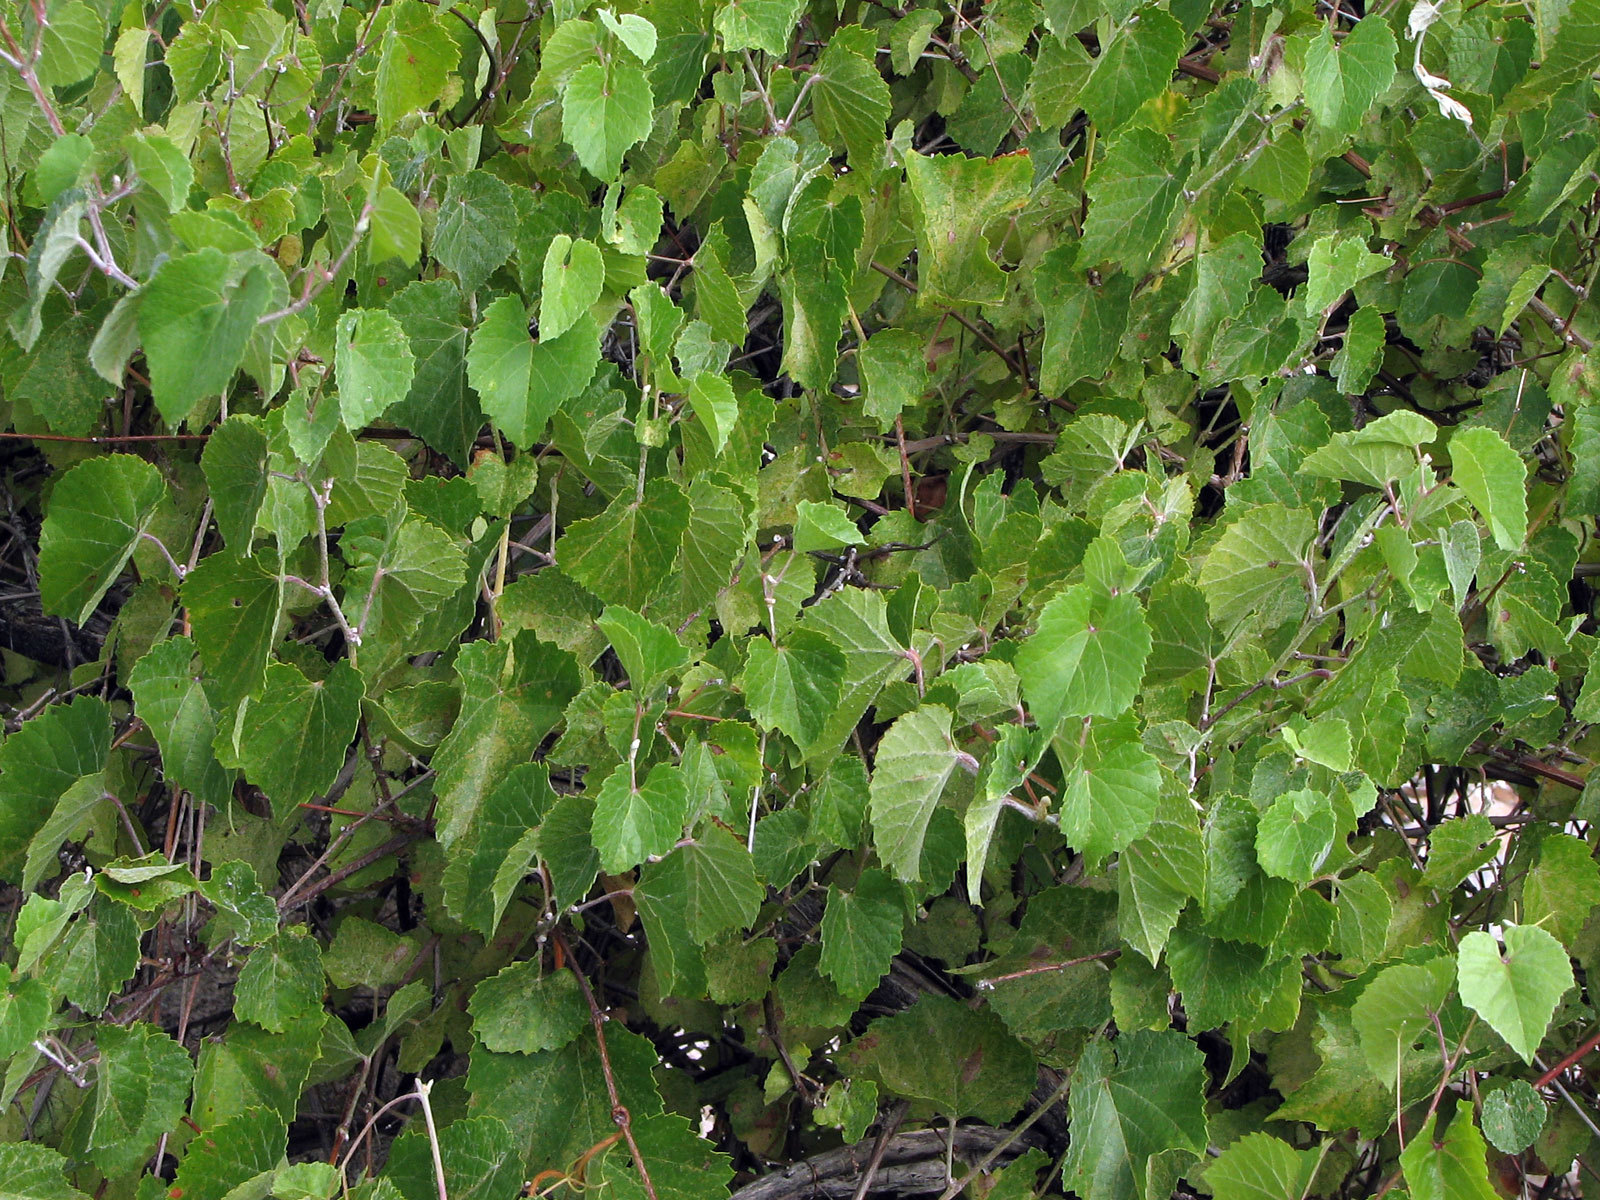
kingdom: Plantae
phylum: Tracheophyta
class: Magnoliopsida
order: Vitales
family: Vitaceae
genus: Vitis
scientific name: Vitis arizonica
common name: Canyon grape
